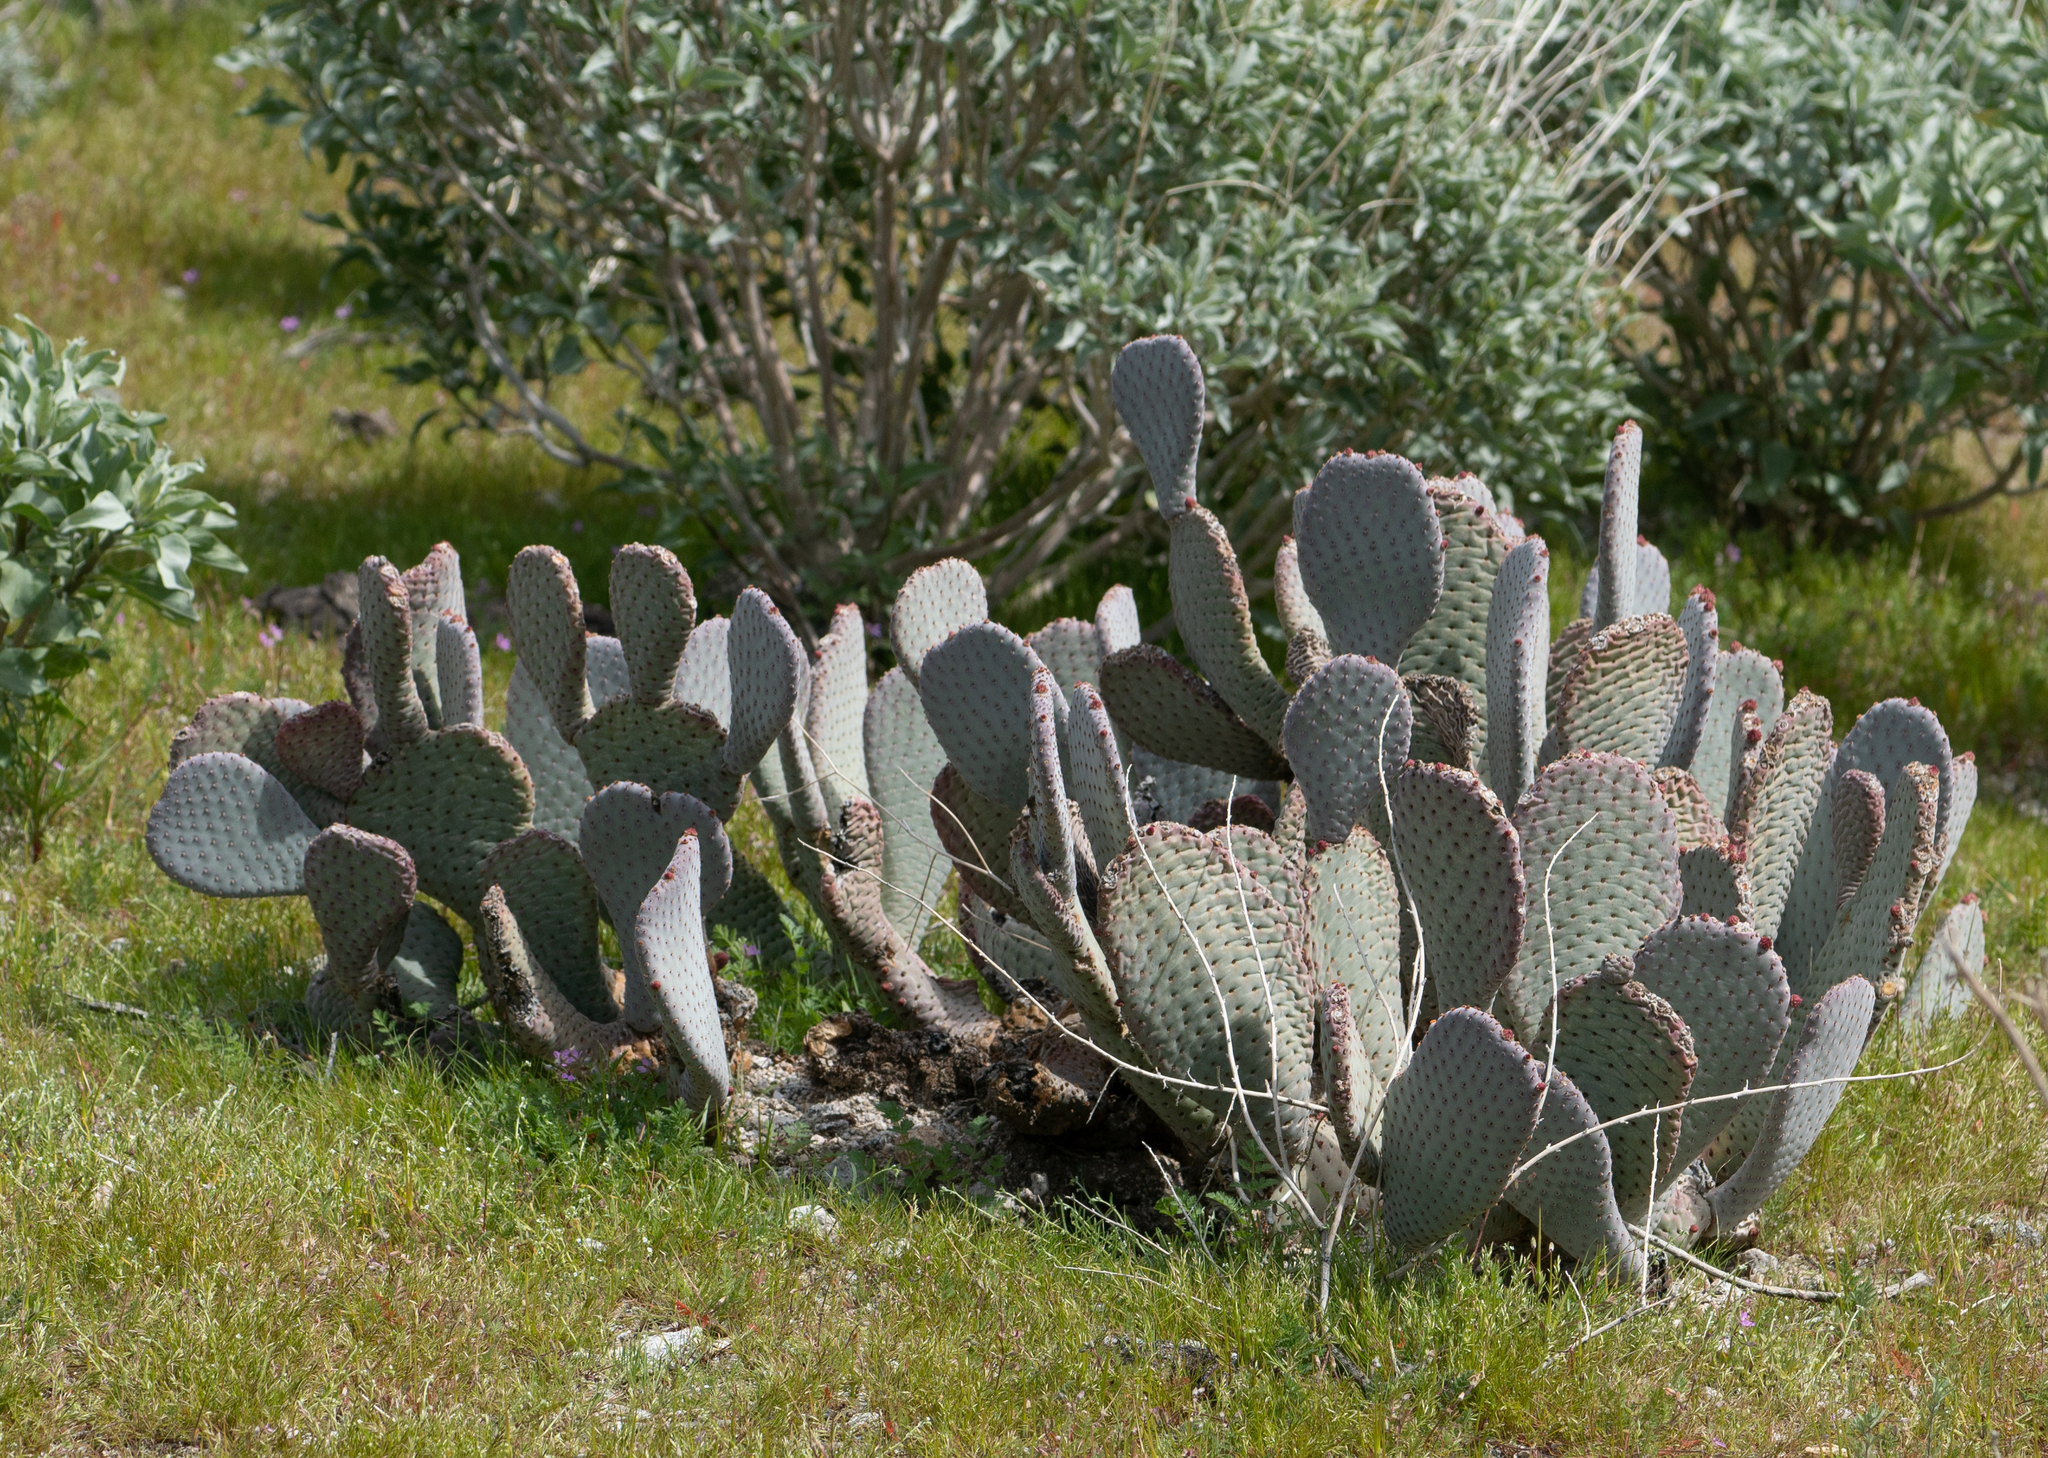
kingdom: Plantae
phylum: Tracheophyta
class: Magnoliopsida
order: Caryophyllales
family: Cactaceae
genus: Opuntia
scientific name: Opuntia basilaris
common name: Beavertail prickly-pear
